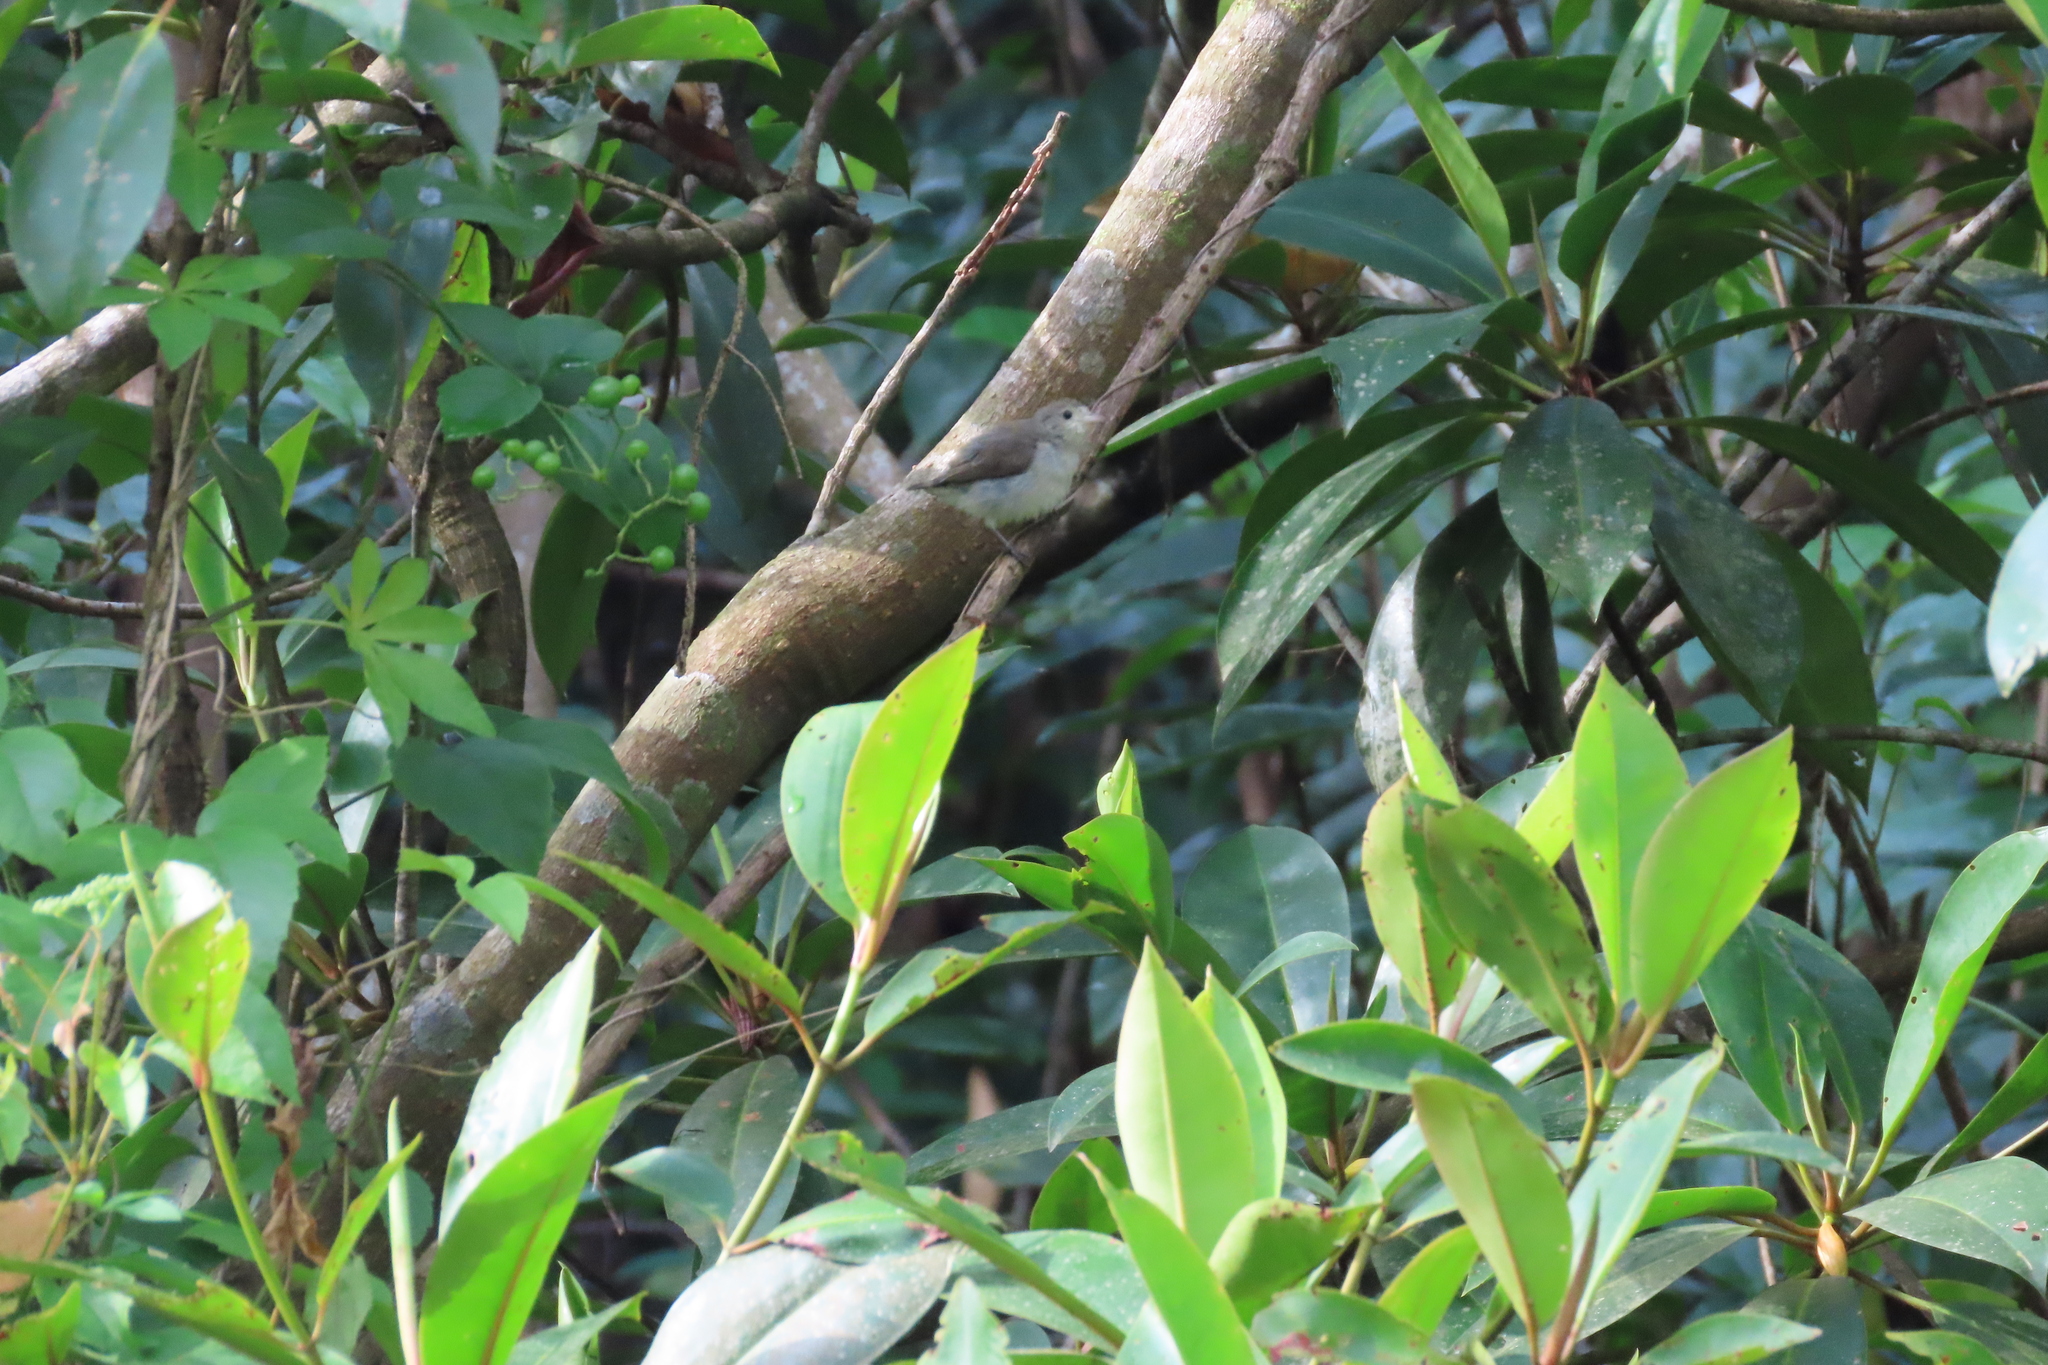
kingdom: Animalia
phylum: Chordata
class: Aves
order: Passeriformes
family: Dicaeidae
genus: Dicaeum
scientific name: Dicaeum erythrorhynchos
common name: Pale-billed flowerpecker
